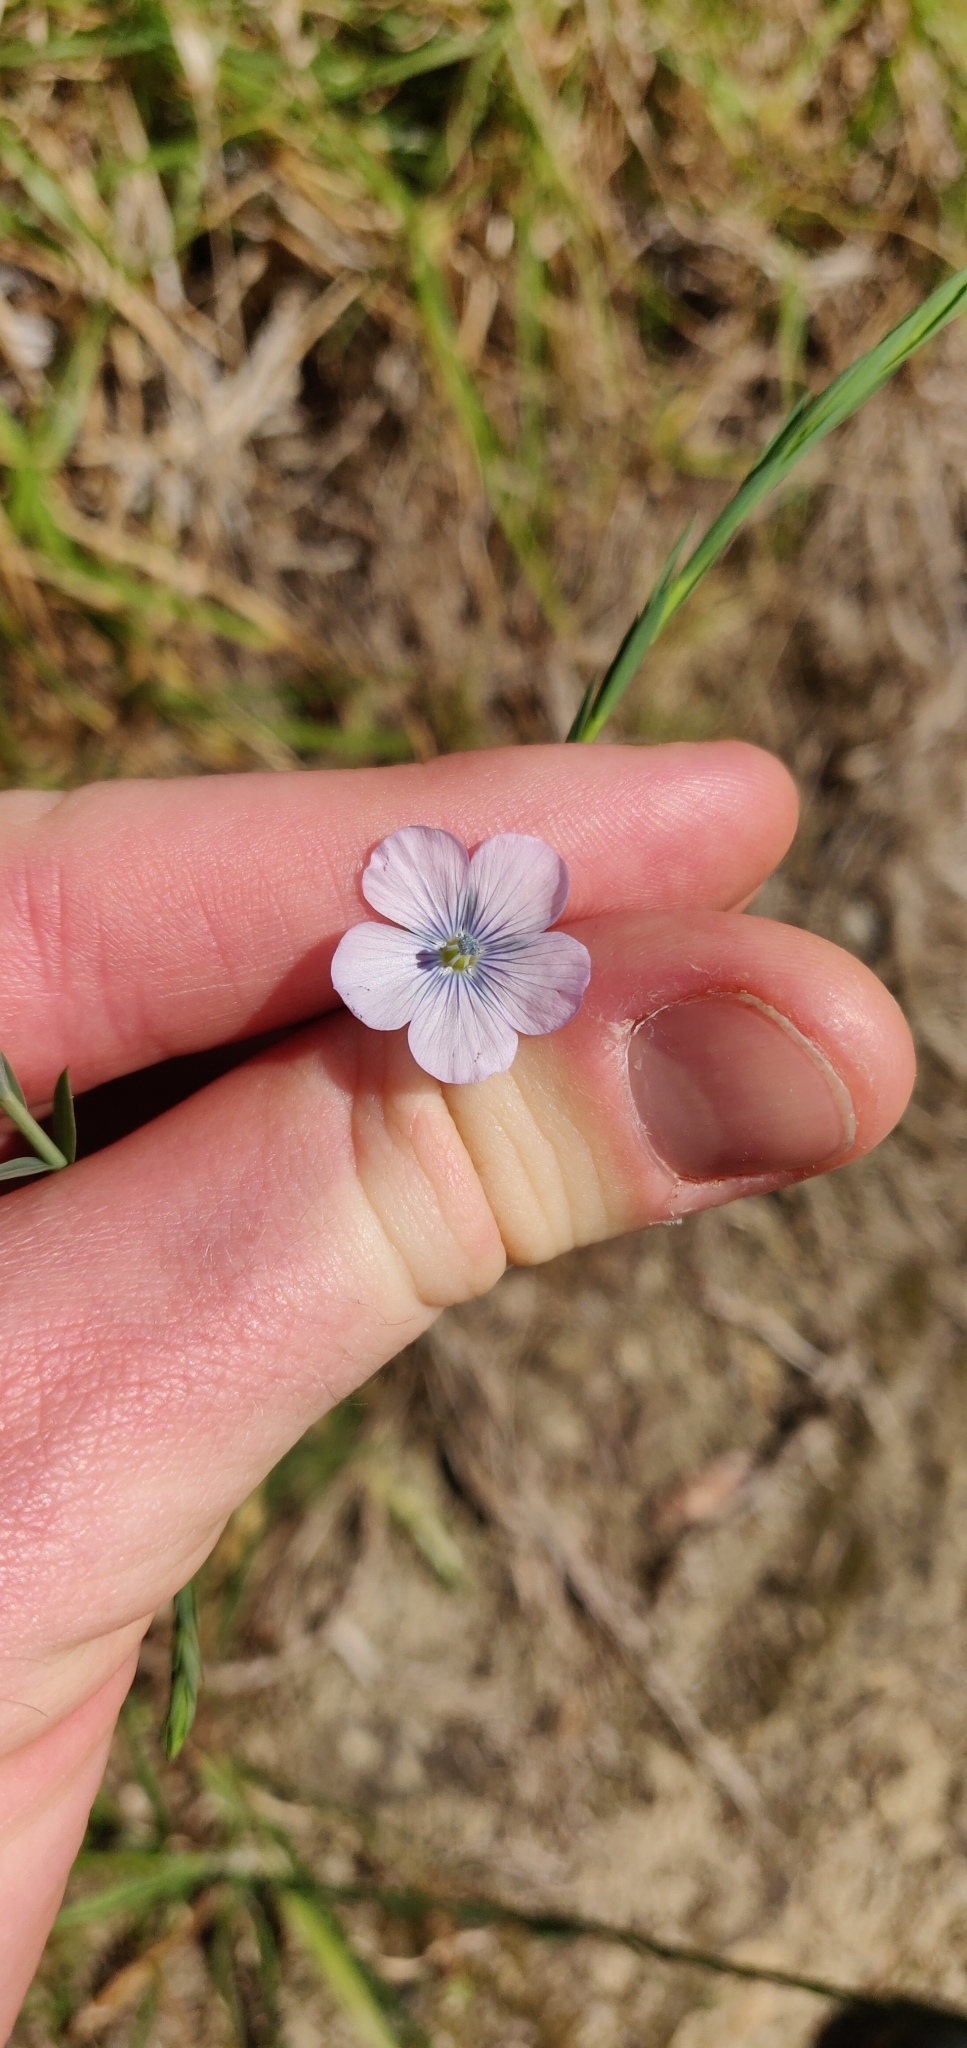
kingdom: Plantae
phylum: Tracheophyta
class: Magnoliopsida
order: Malpighiales
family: Linaceae
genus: Linum
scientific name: Linum bienne
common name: Pale flax
